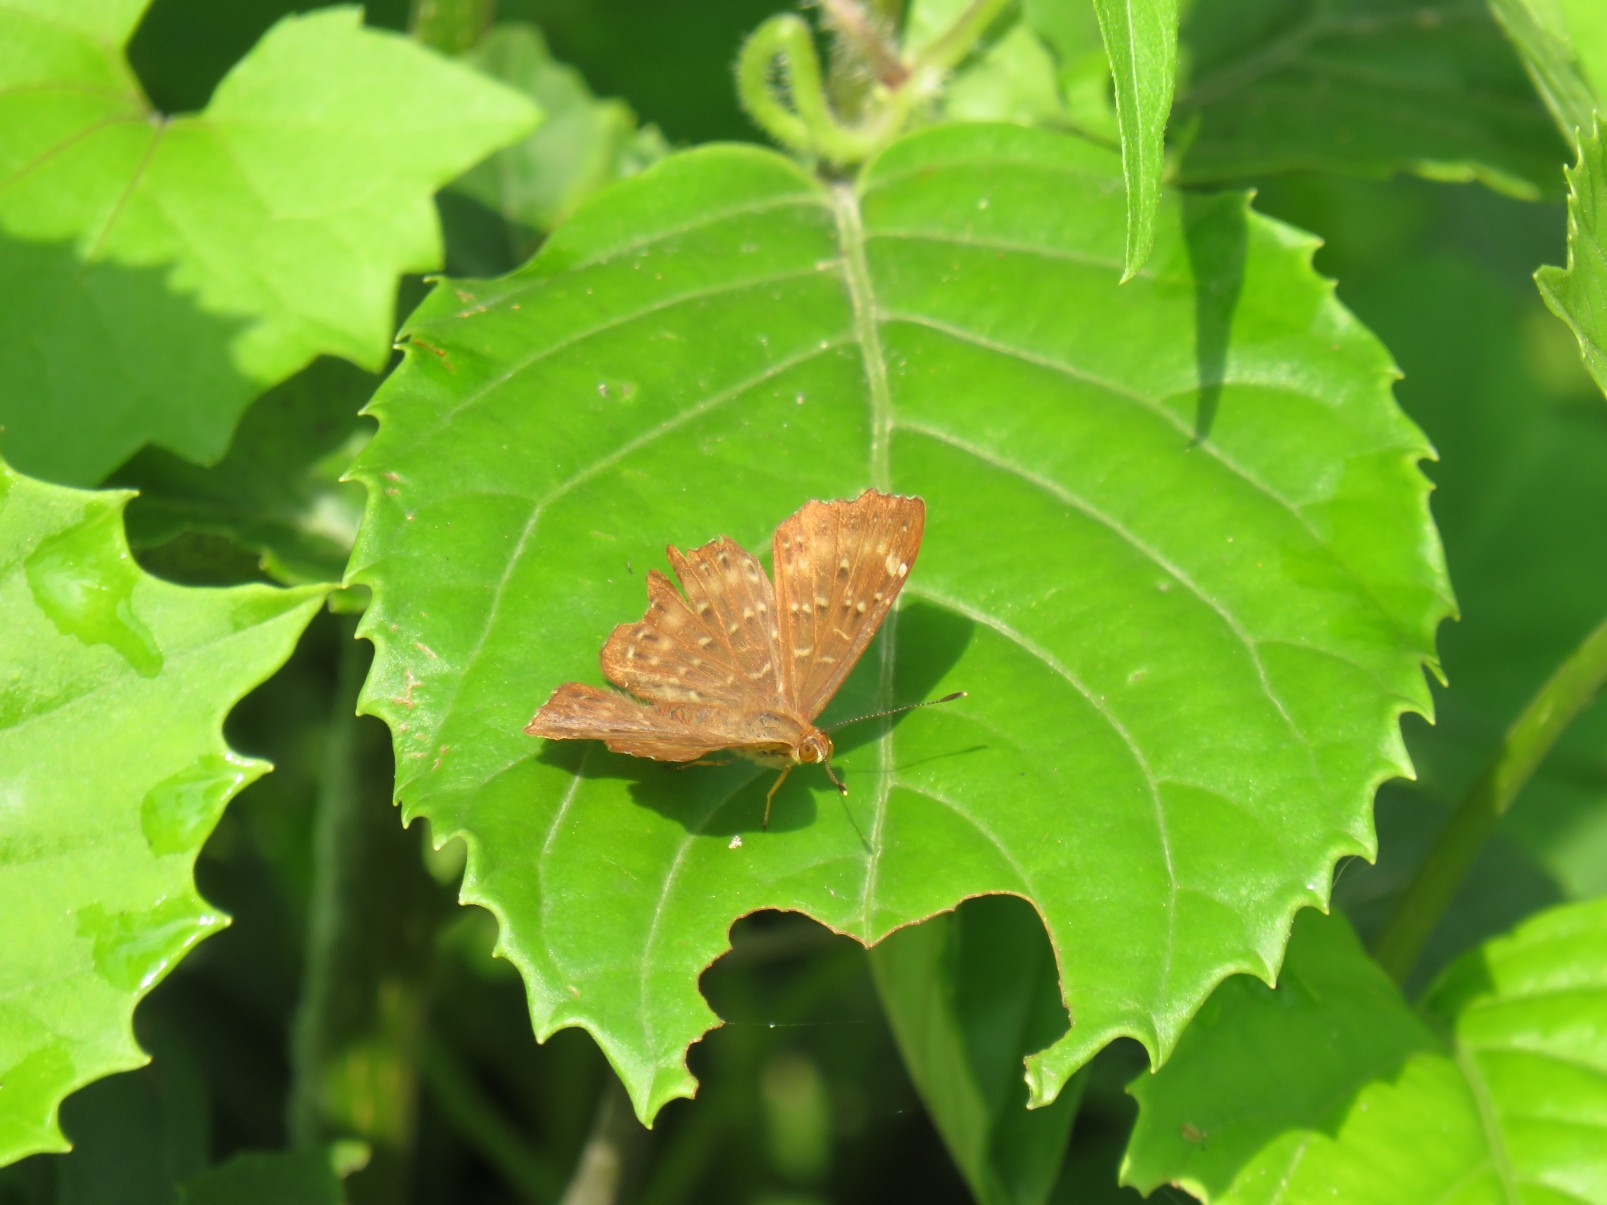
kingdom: Animalia
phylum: Arthropoda
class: Insecta
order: Lepidoptera
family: Riodinidae
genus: Zemeros
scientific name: Zemeros flegyas
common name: Punchinello
